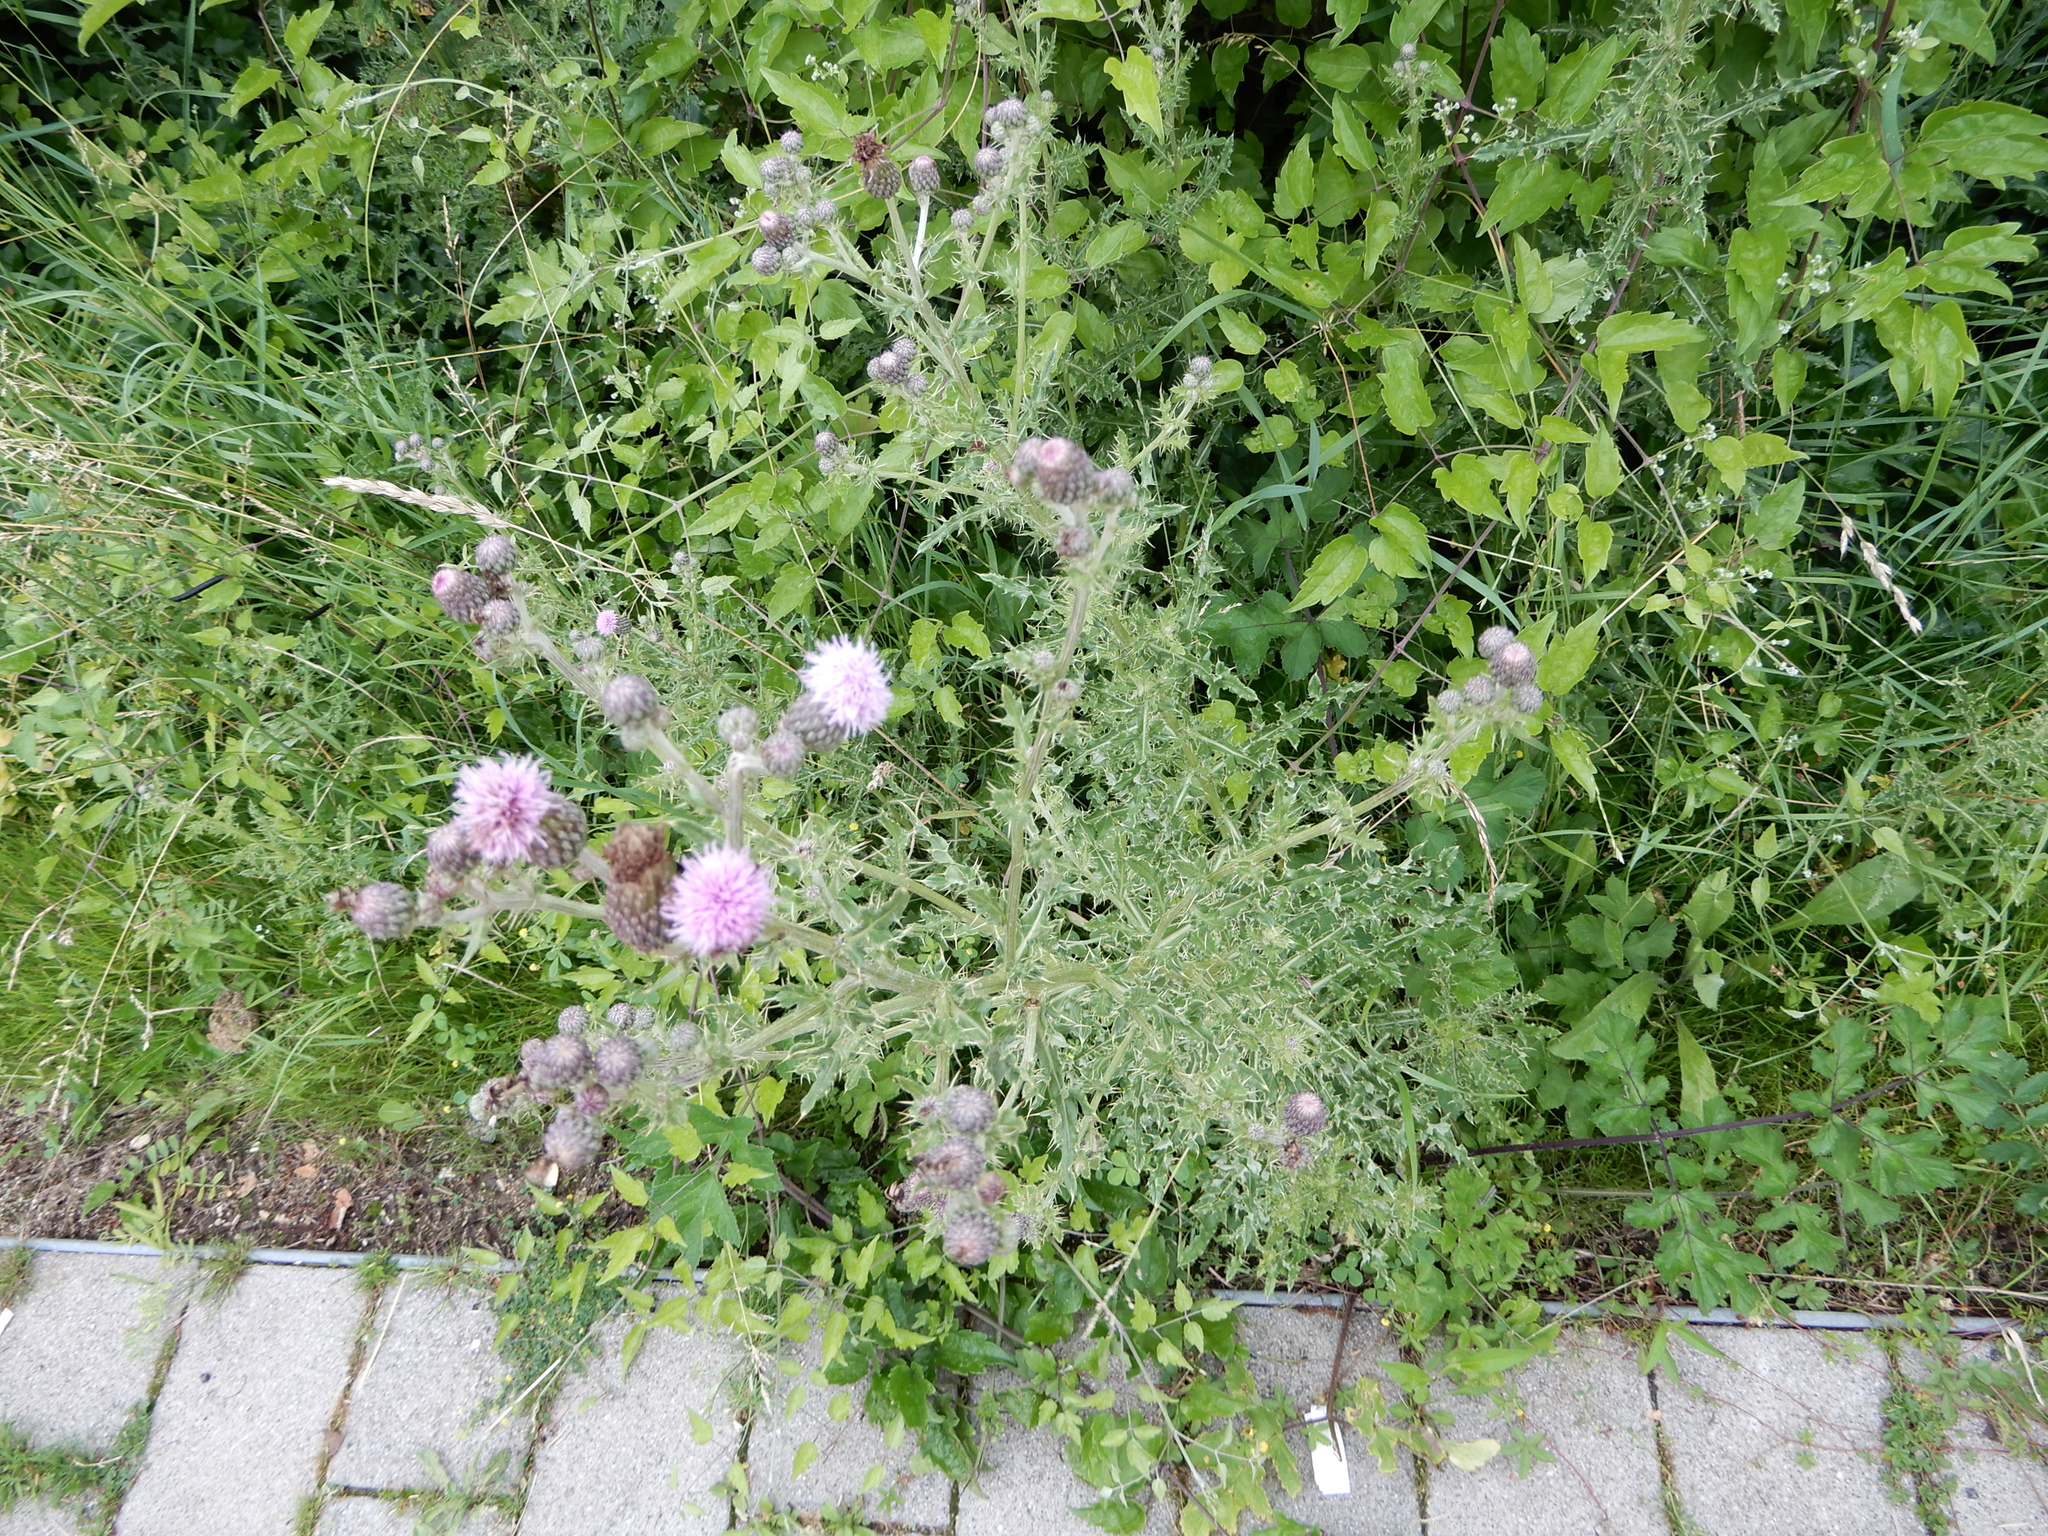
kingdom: Plantae
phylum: Tracheophyta
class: Magnoliopsida
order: Asterales
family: Asteraceae
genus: Cirsium
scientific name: Cirsium arvense
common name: Creeping thistle
